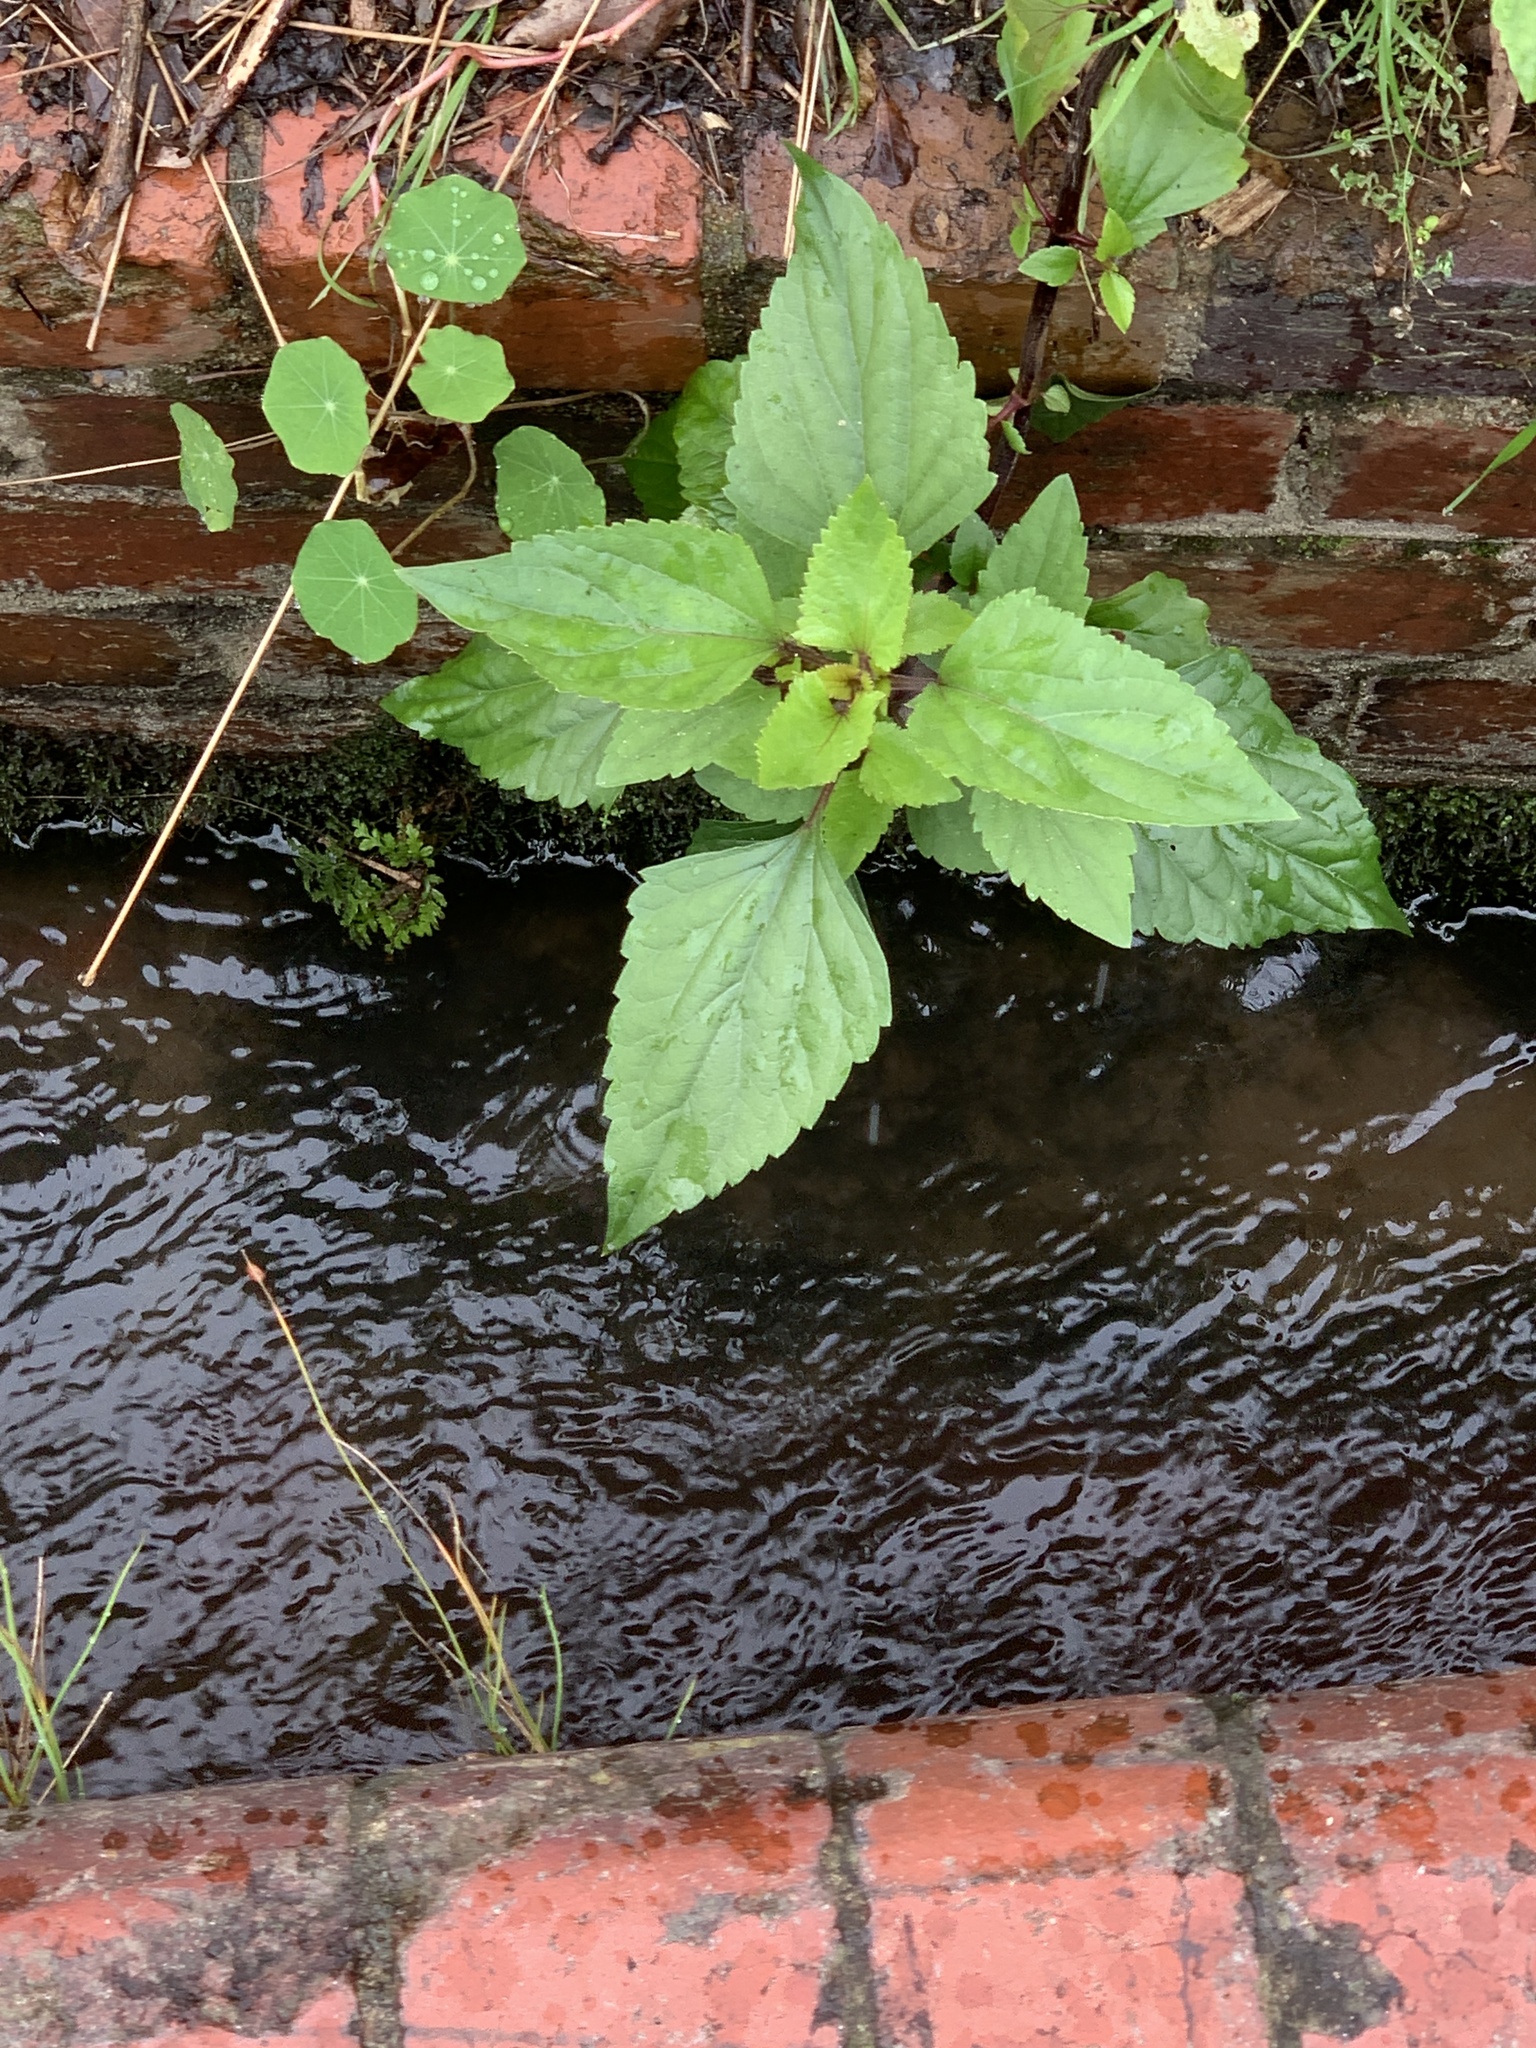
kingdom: Plantae
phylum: Tracheophyta
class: Magnoliopsida
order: Asterales
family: Asteraceae
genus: Ageratina
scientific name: Ageratina adenophora
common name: Sticky snakeroot
